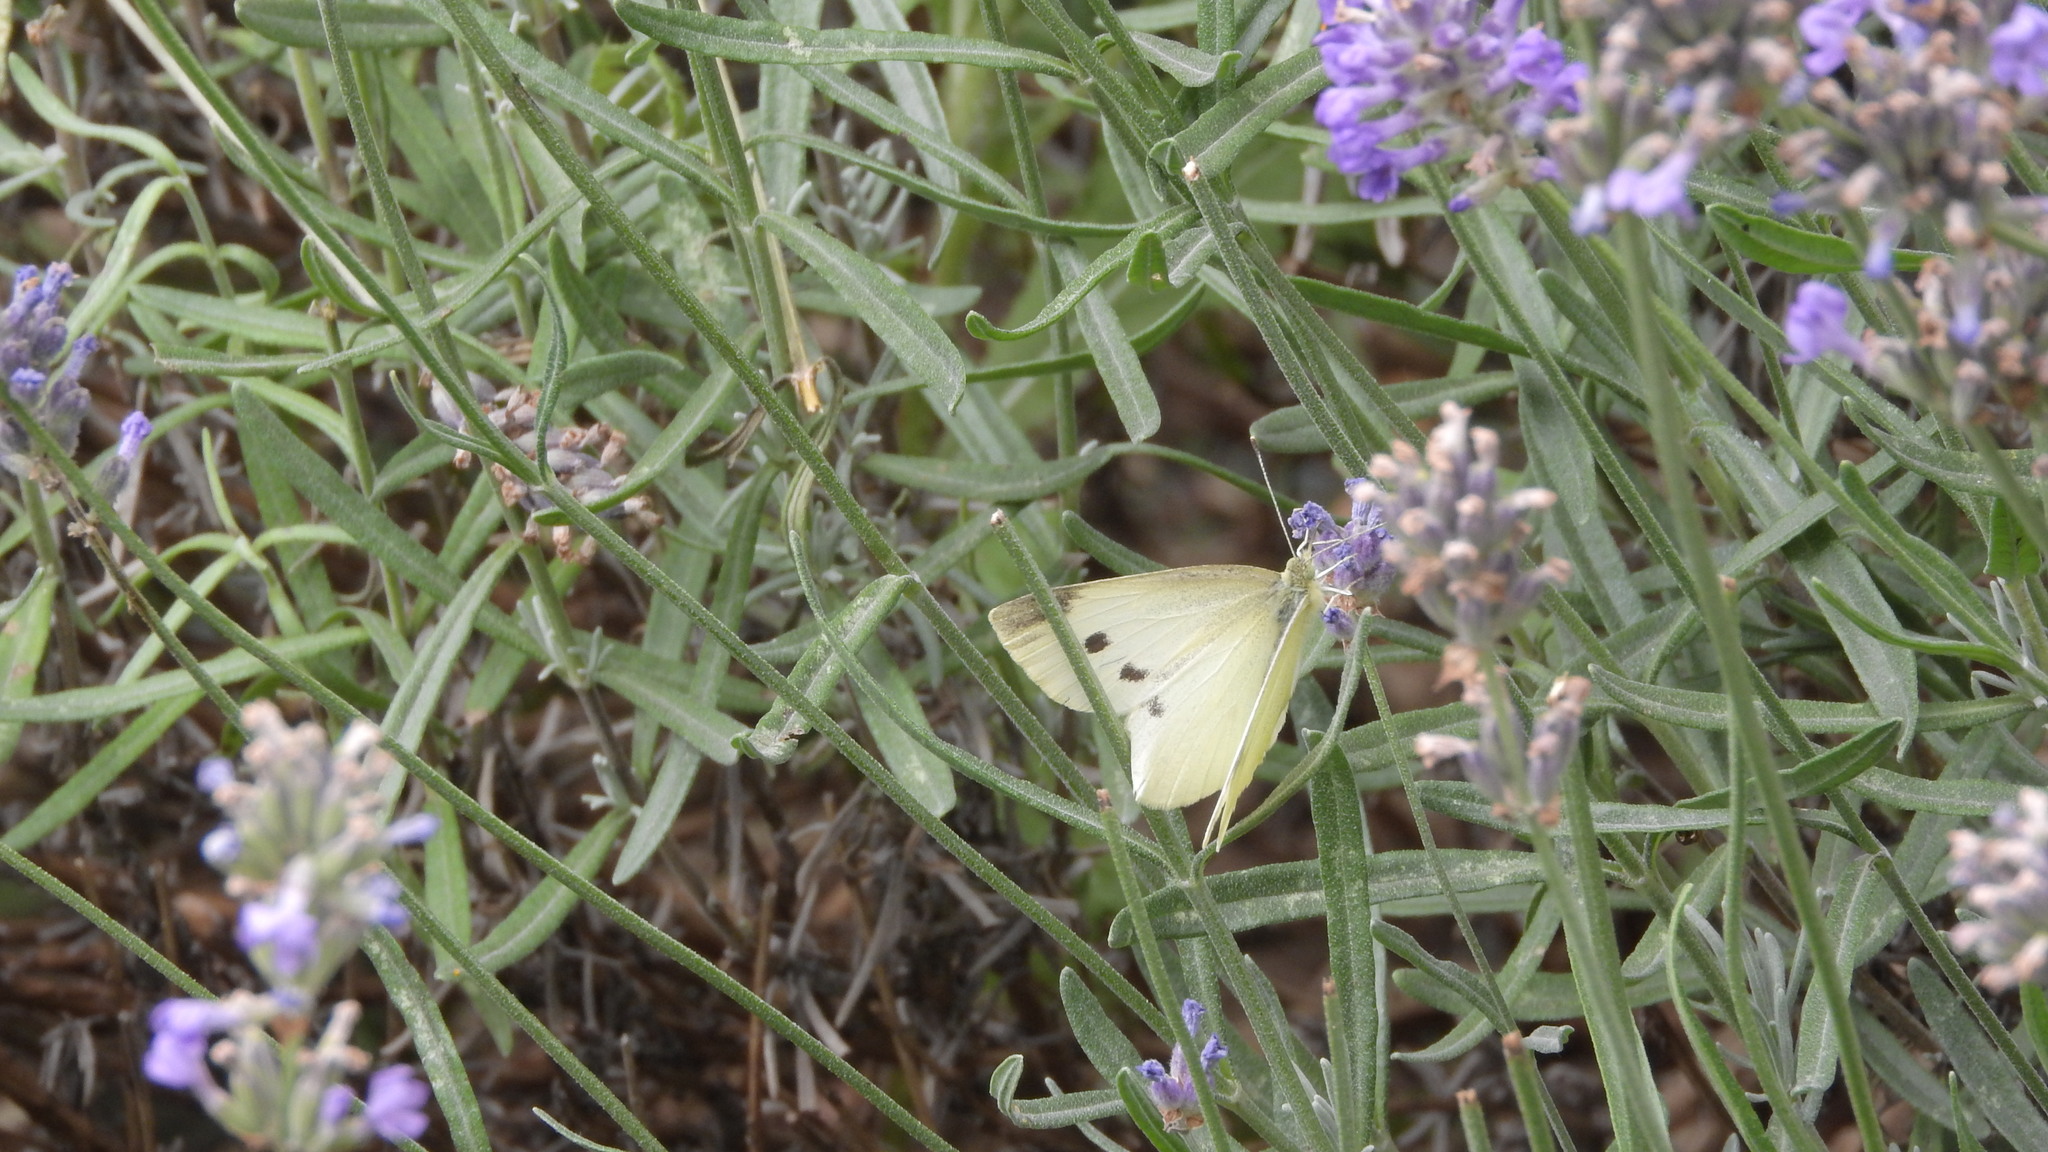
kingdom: Animalia
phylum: Arthropoda
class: Insecta
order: Lepidoptera
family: Pieridae
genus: Pieris
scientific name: Pieris rapae
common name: Small white
